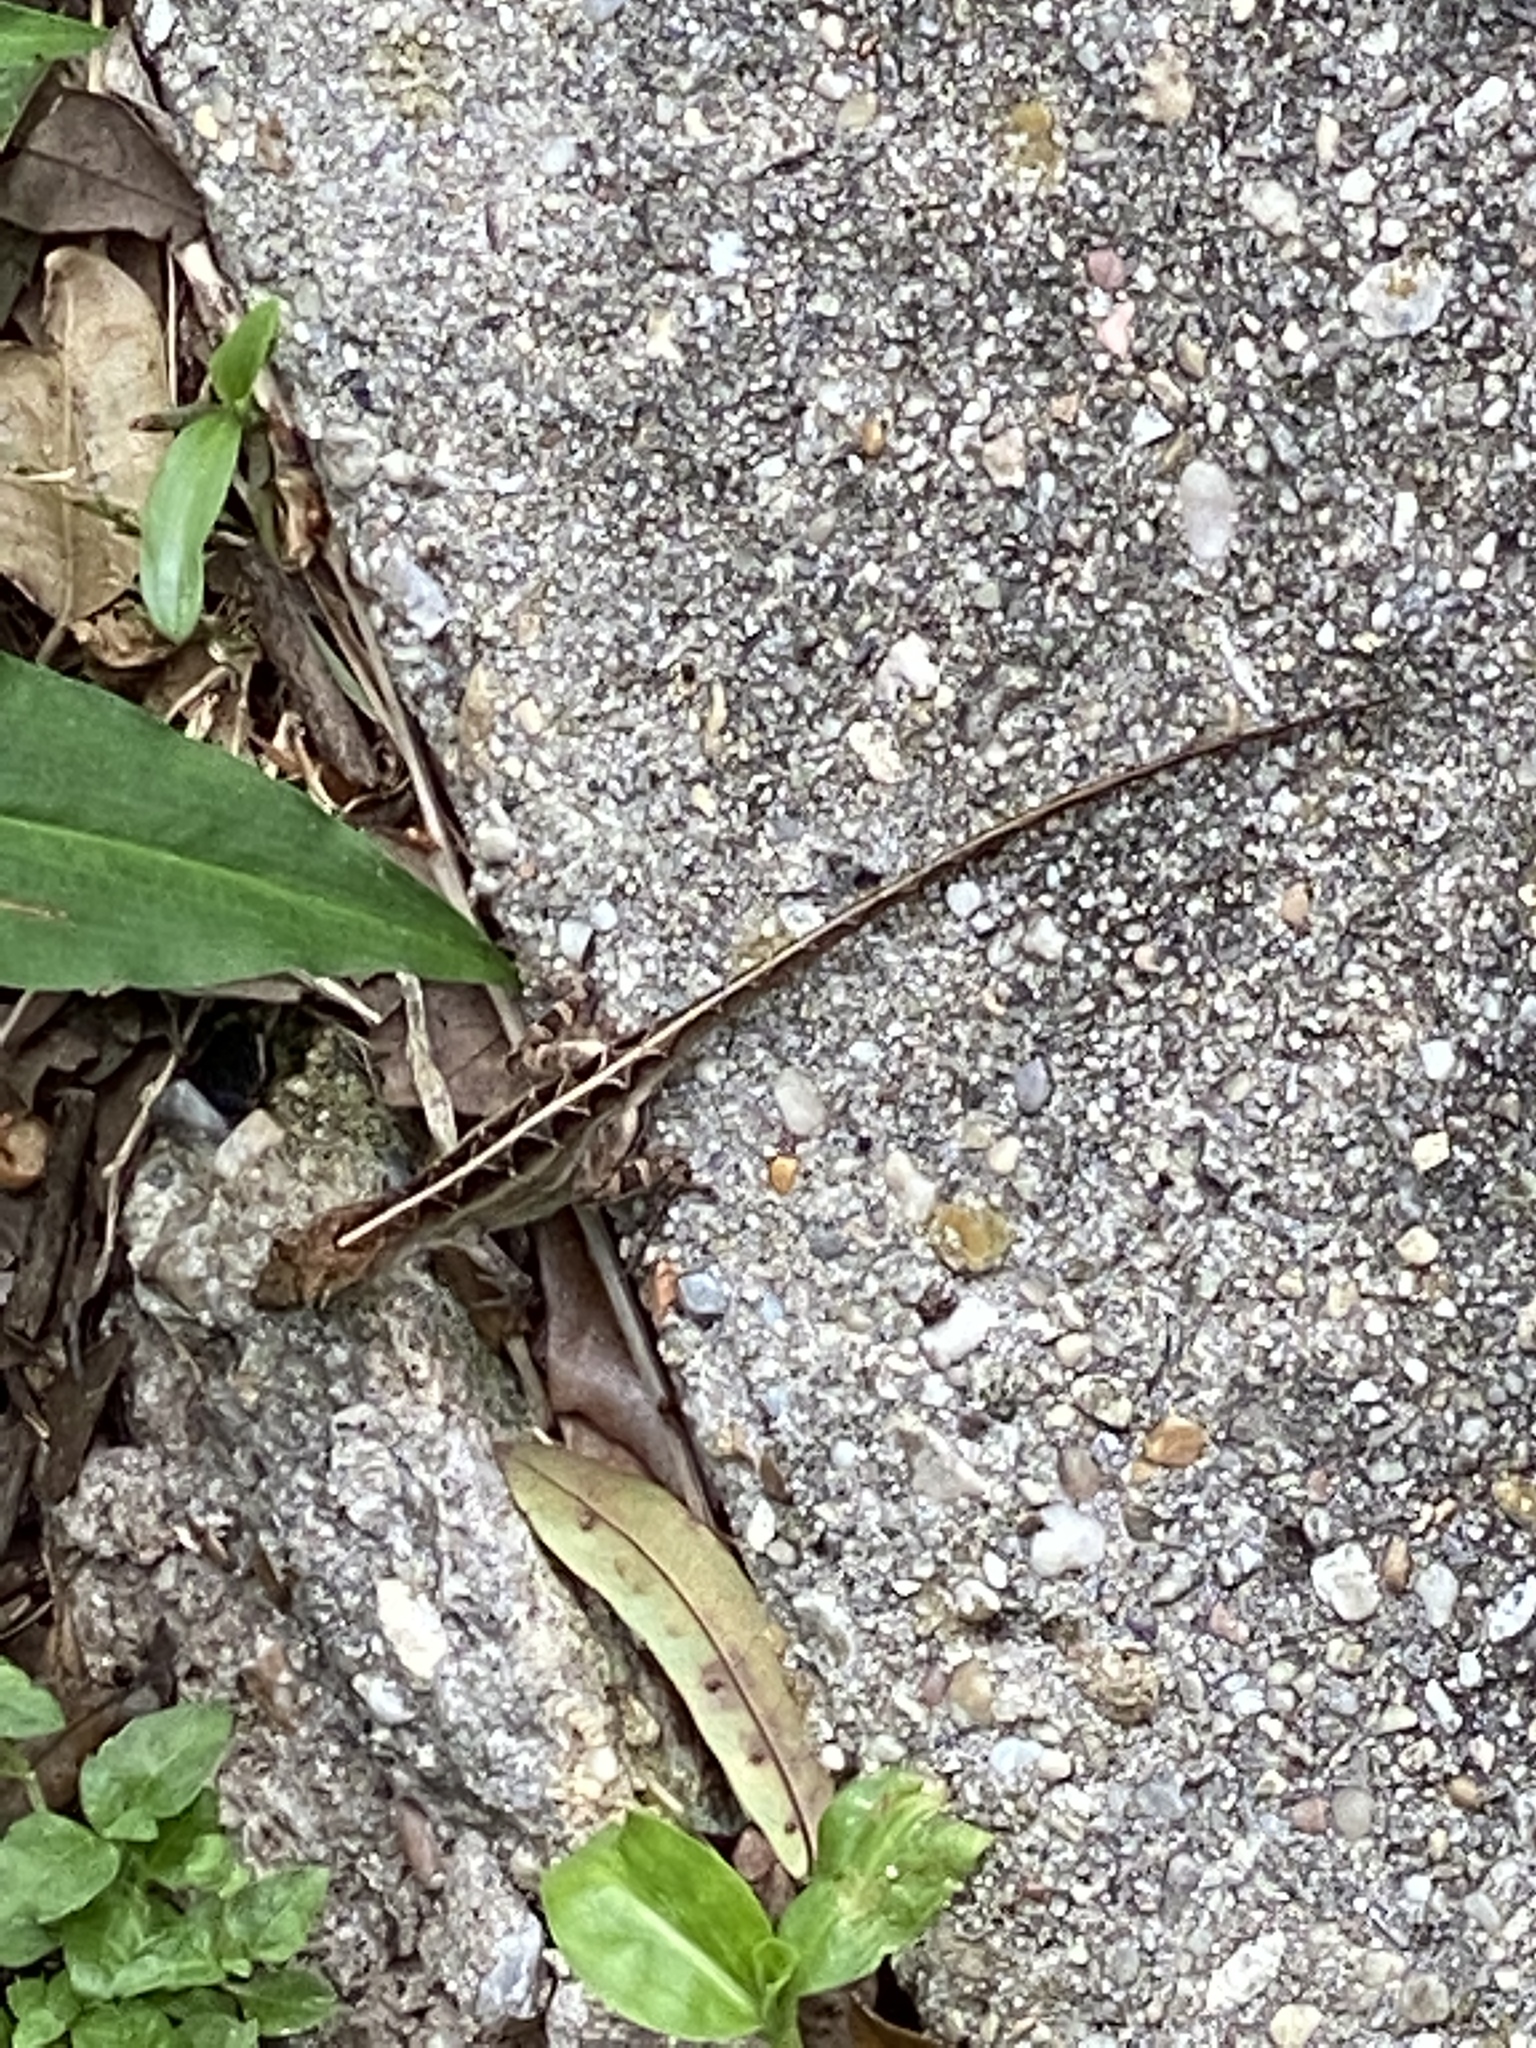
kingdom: Animalia
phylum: Chordata
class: Squamata
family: Dactyloidae
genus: Anolis
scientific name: Anolis sagrei
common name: Brown anole
